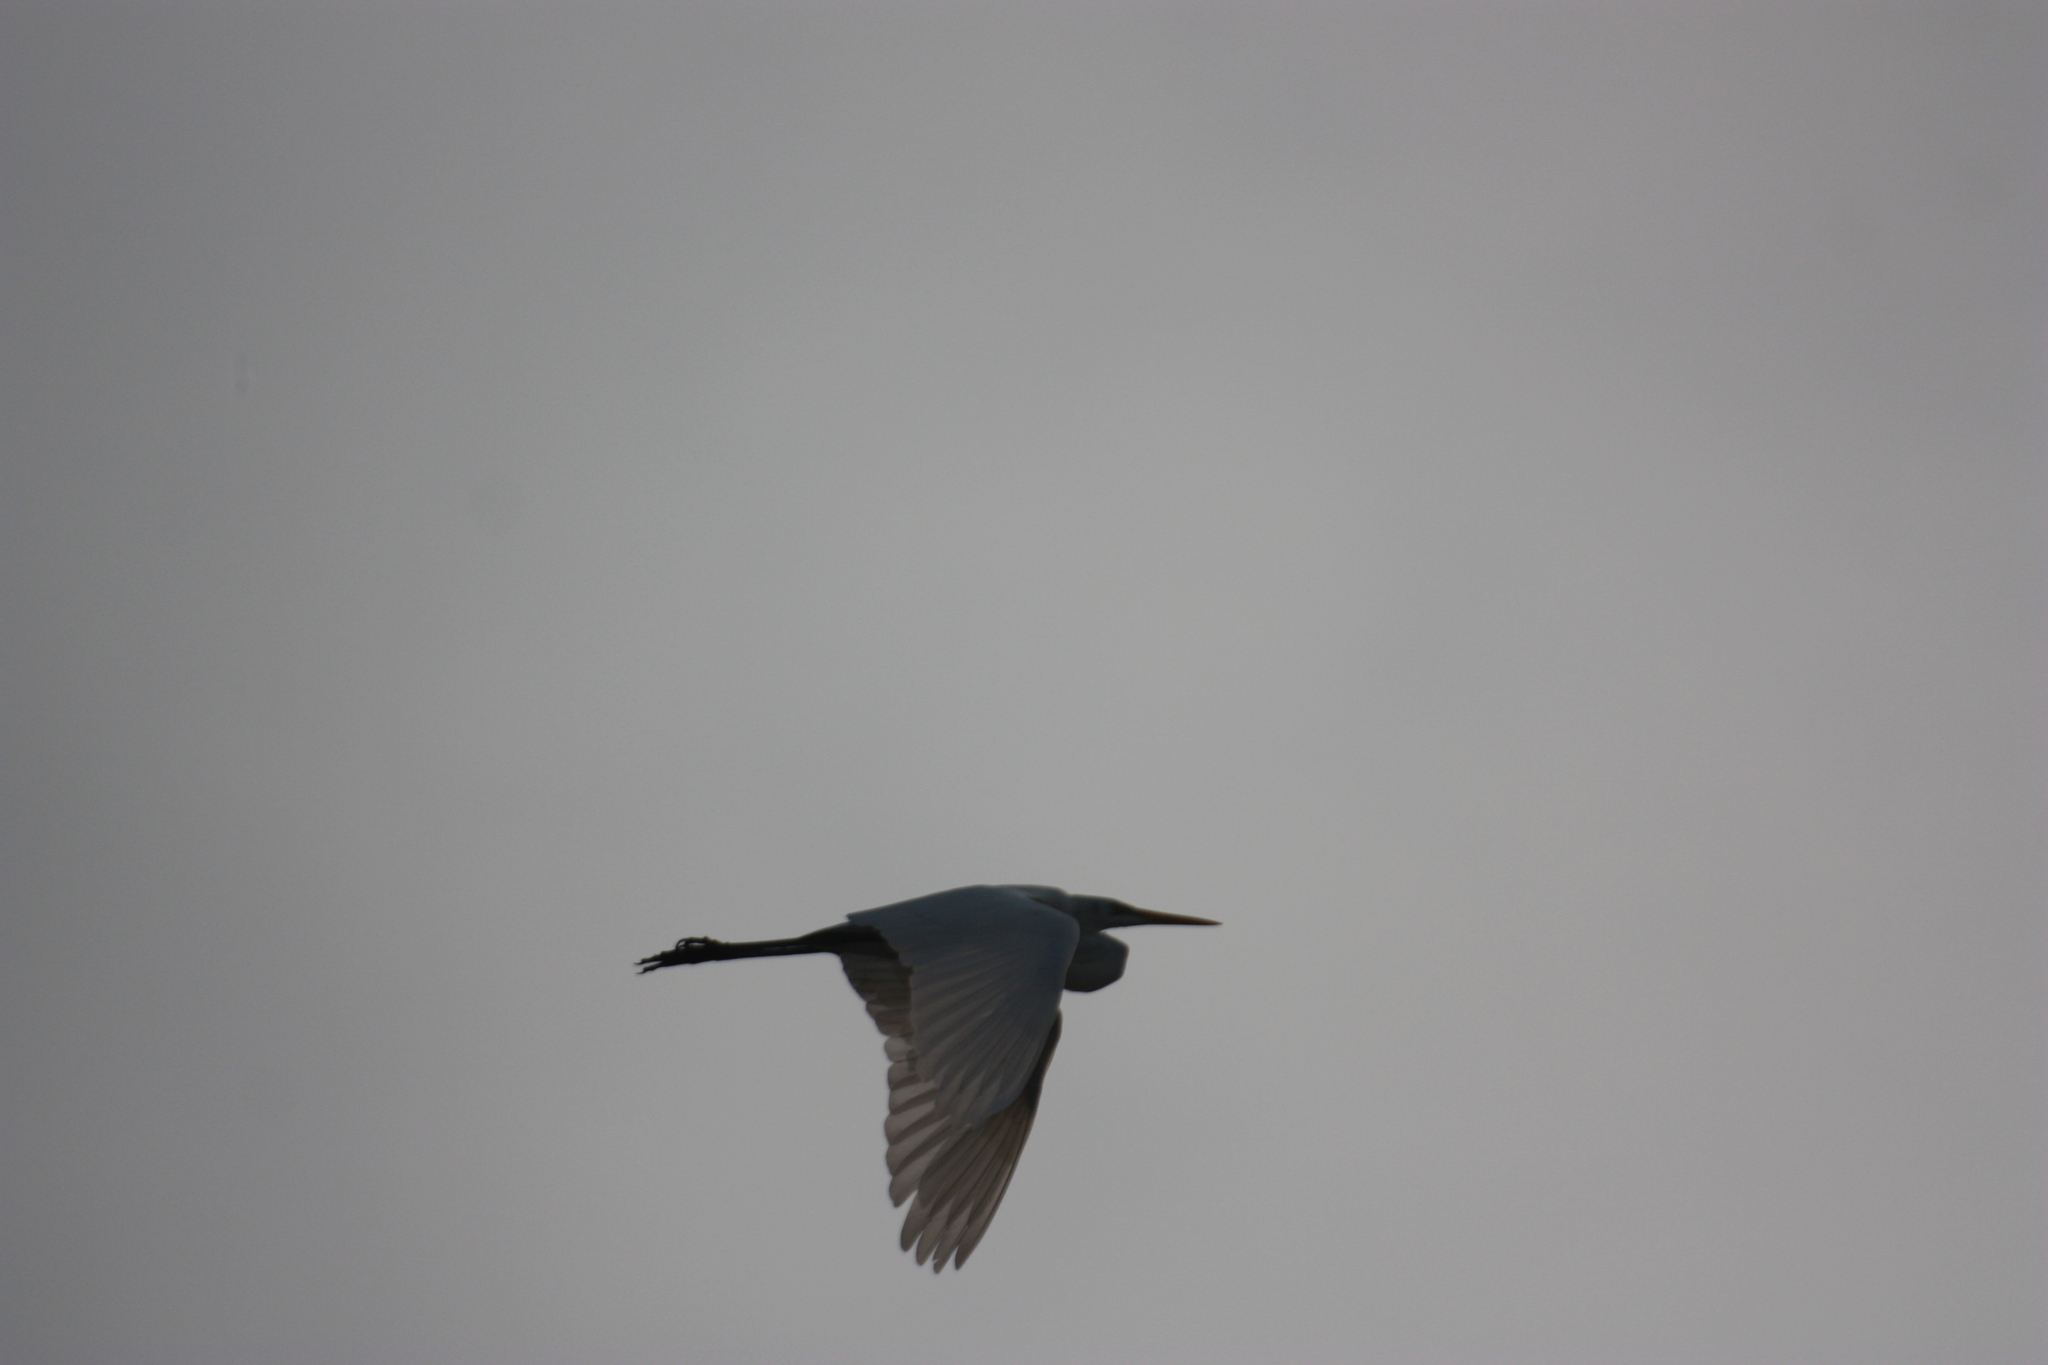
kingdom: Animalia
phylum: Chordata
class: Aves
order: Pelecaniformes
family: Ardeidae
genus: Ardea
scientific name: Ardea alba
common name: Great egret
